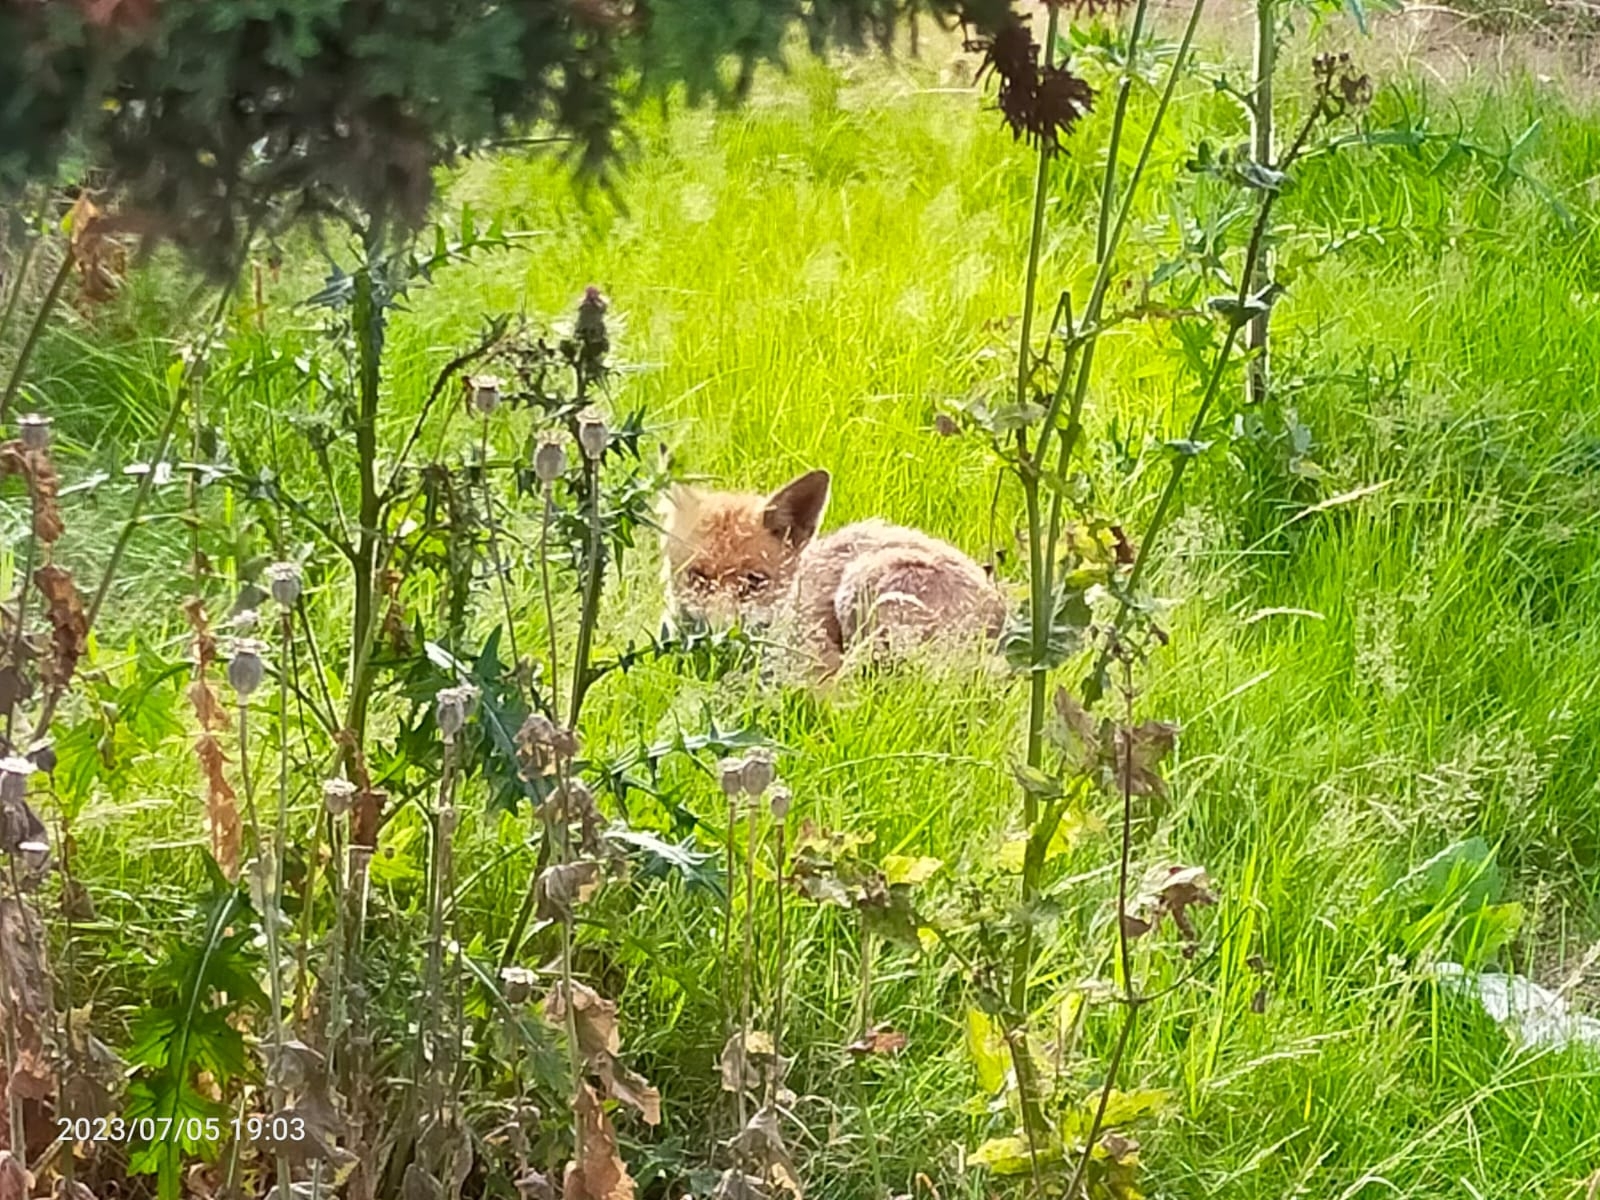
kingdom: Animalia
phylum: Chordata
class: Mammalia
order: Carnivora
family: Canidae
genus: Vulpes
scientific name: Vulpes vulpes
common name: Red fox
